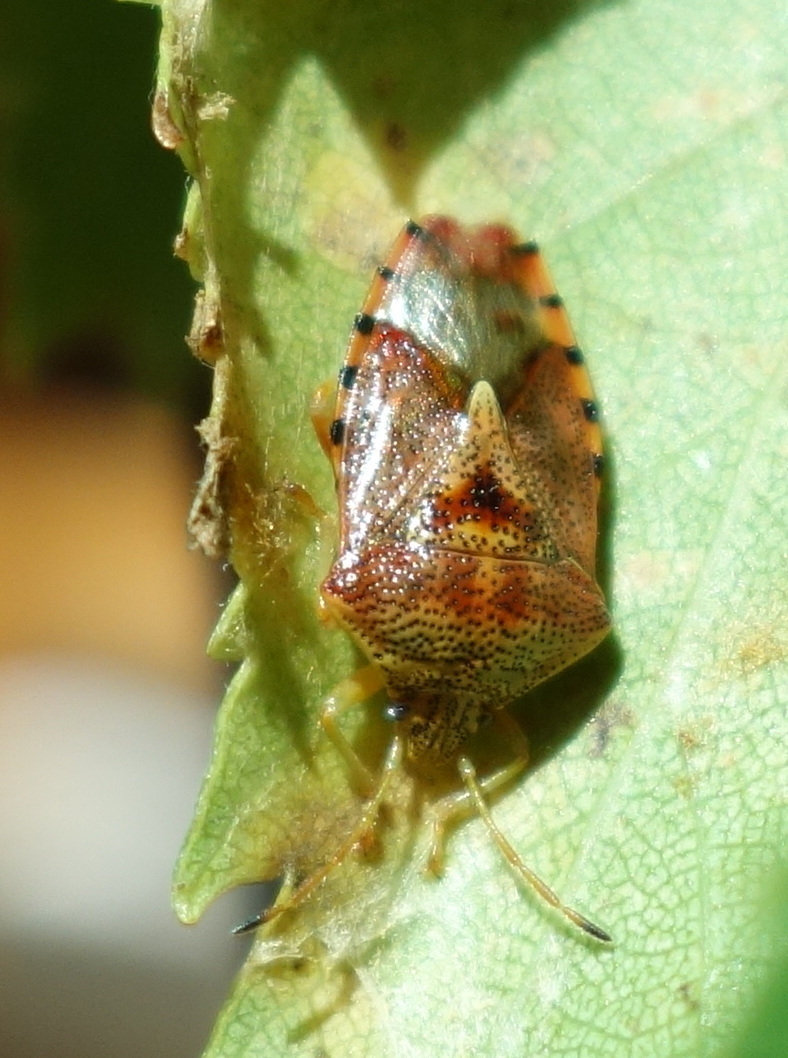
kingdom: Animalia
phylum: Arthropoda
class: Insecta
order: Hemiptera
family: Acanthosomatidae
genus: Elasmucha
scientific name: Elasmucha grisea
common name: Parent bug
